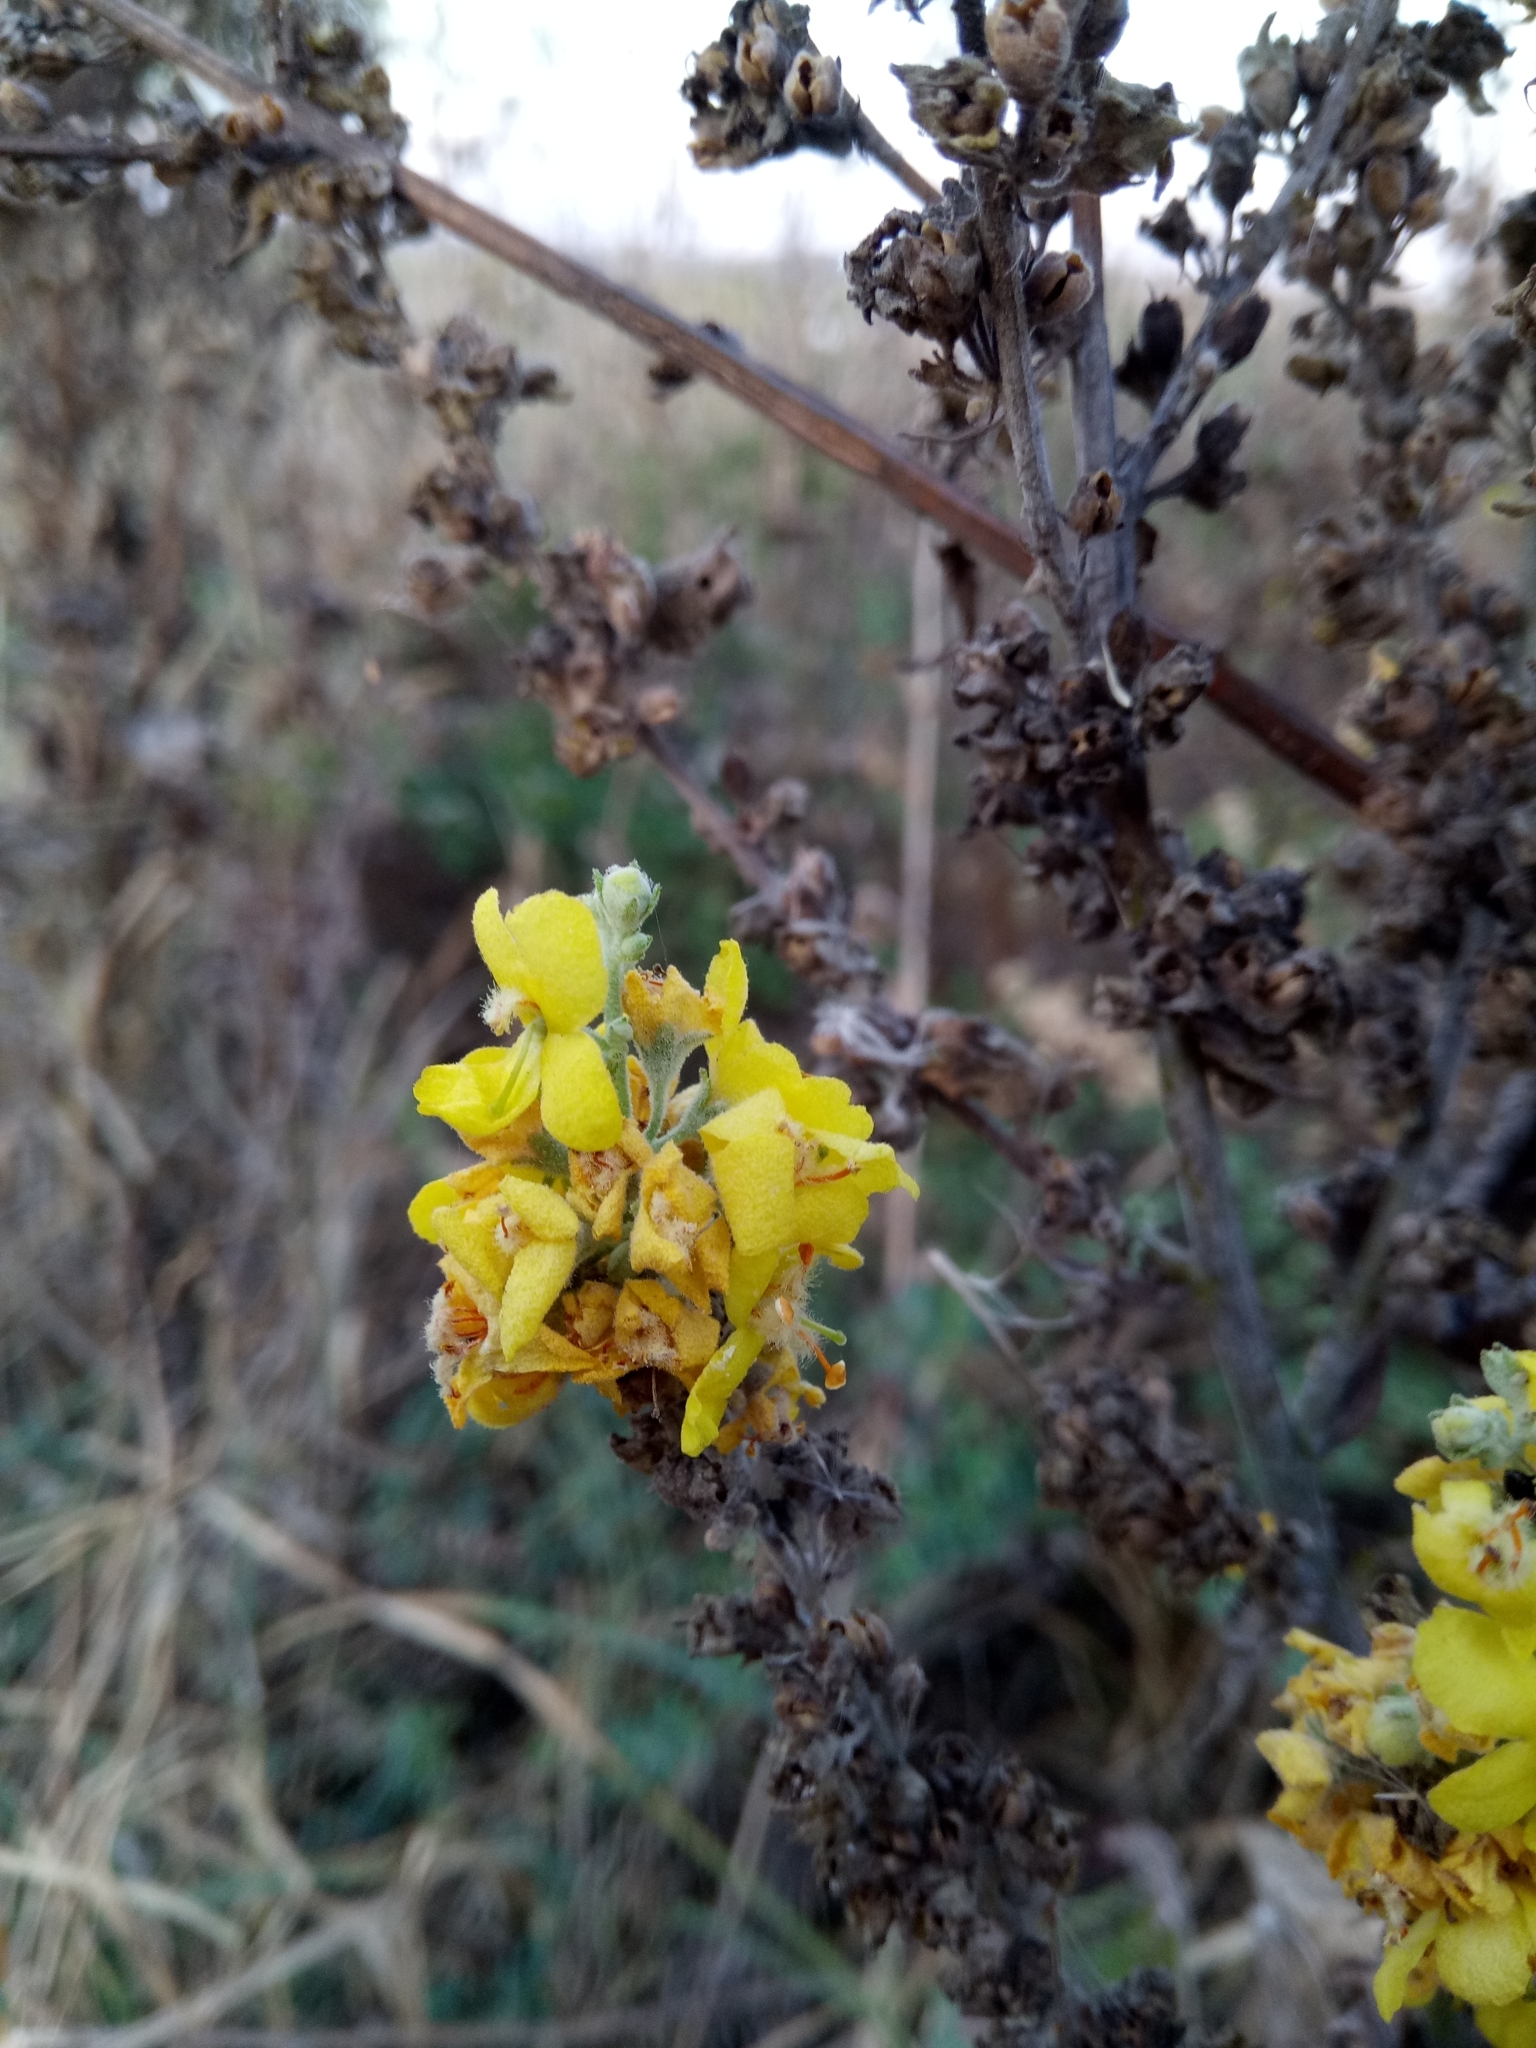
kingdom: Plantae
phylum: Tracheophyta
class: Magnoliopsida
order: Lamiales
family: Scrophulariaceae
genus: Verbascum
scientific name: Verbascum lychnitis
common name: White mullein
